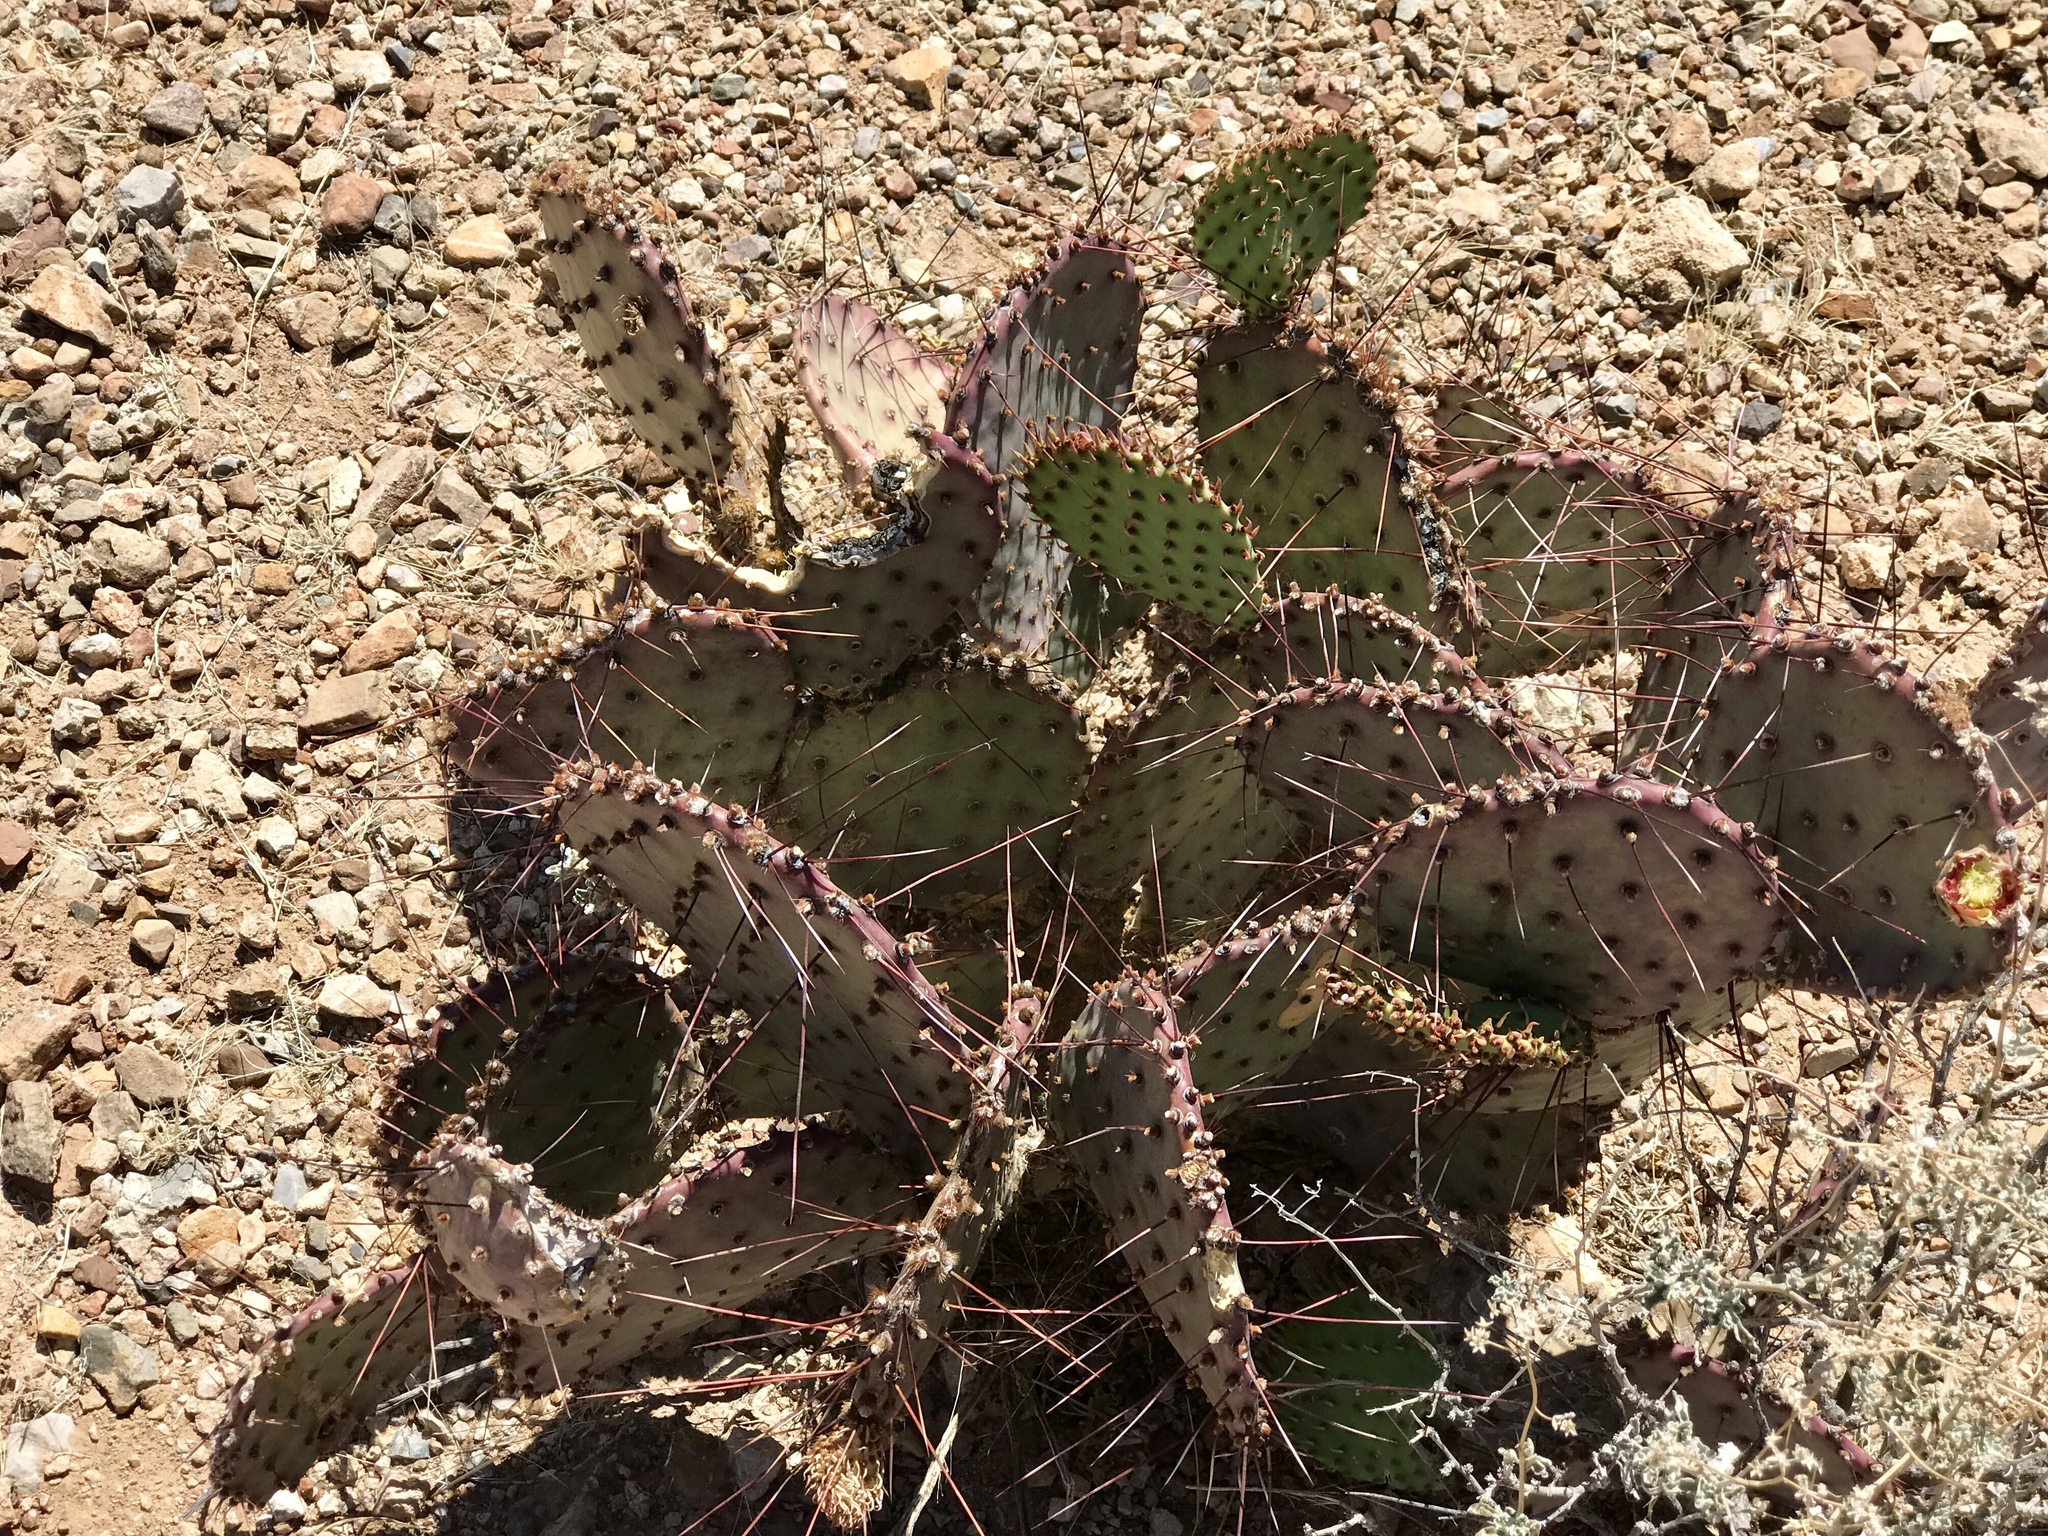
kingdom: Plantae
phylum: Tracheophyta
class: Magnoliopsida
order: Caryophyllales
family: Cactaceae
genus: Opuntia
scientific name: Opuntia macrocentra
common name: Purple prickly-pear
